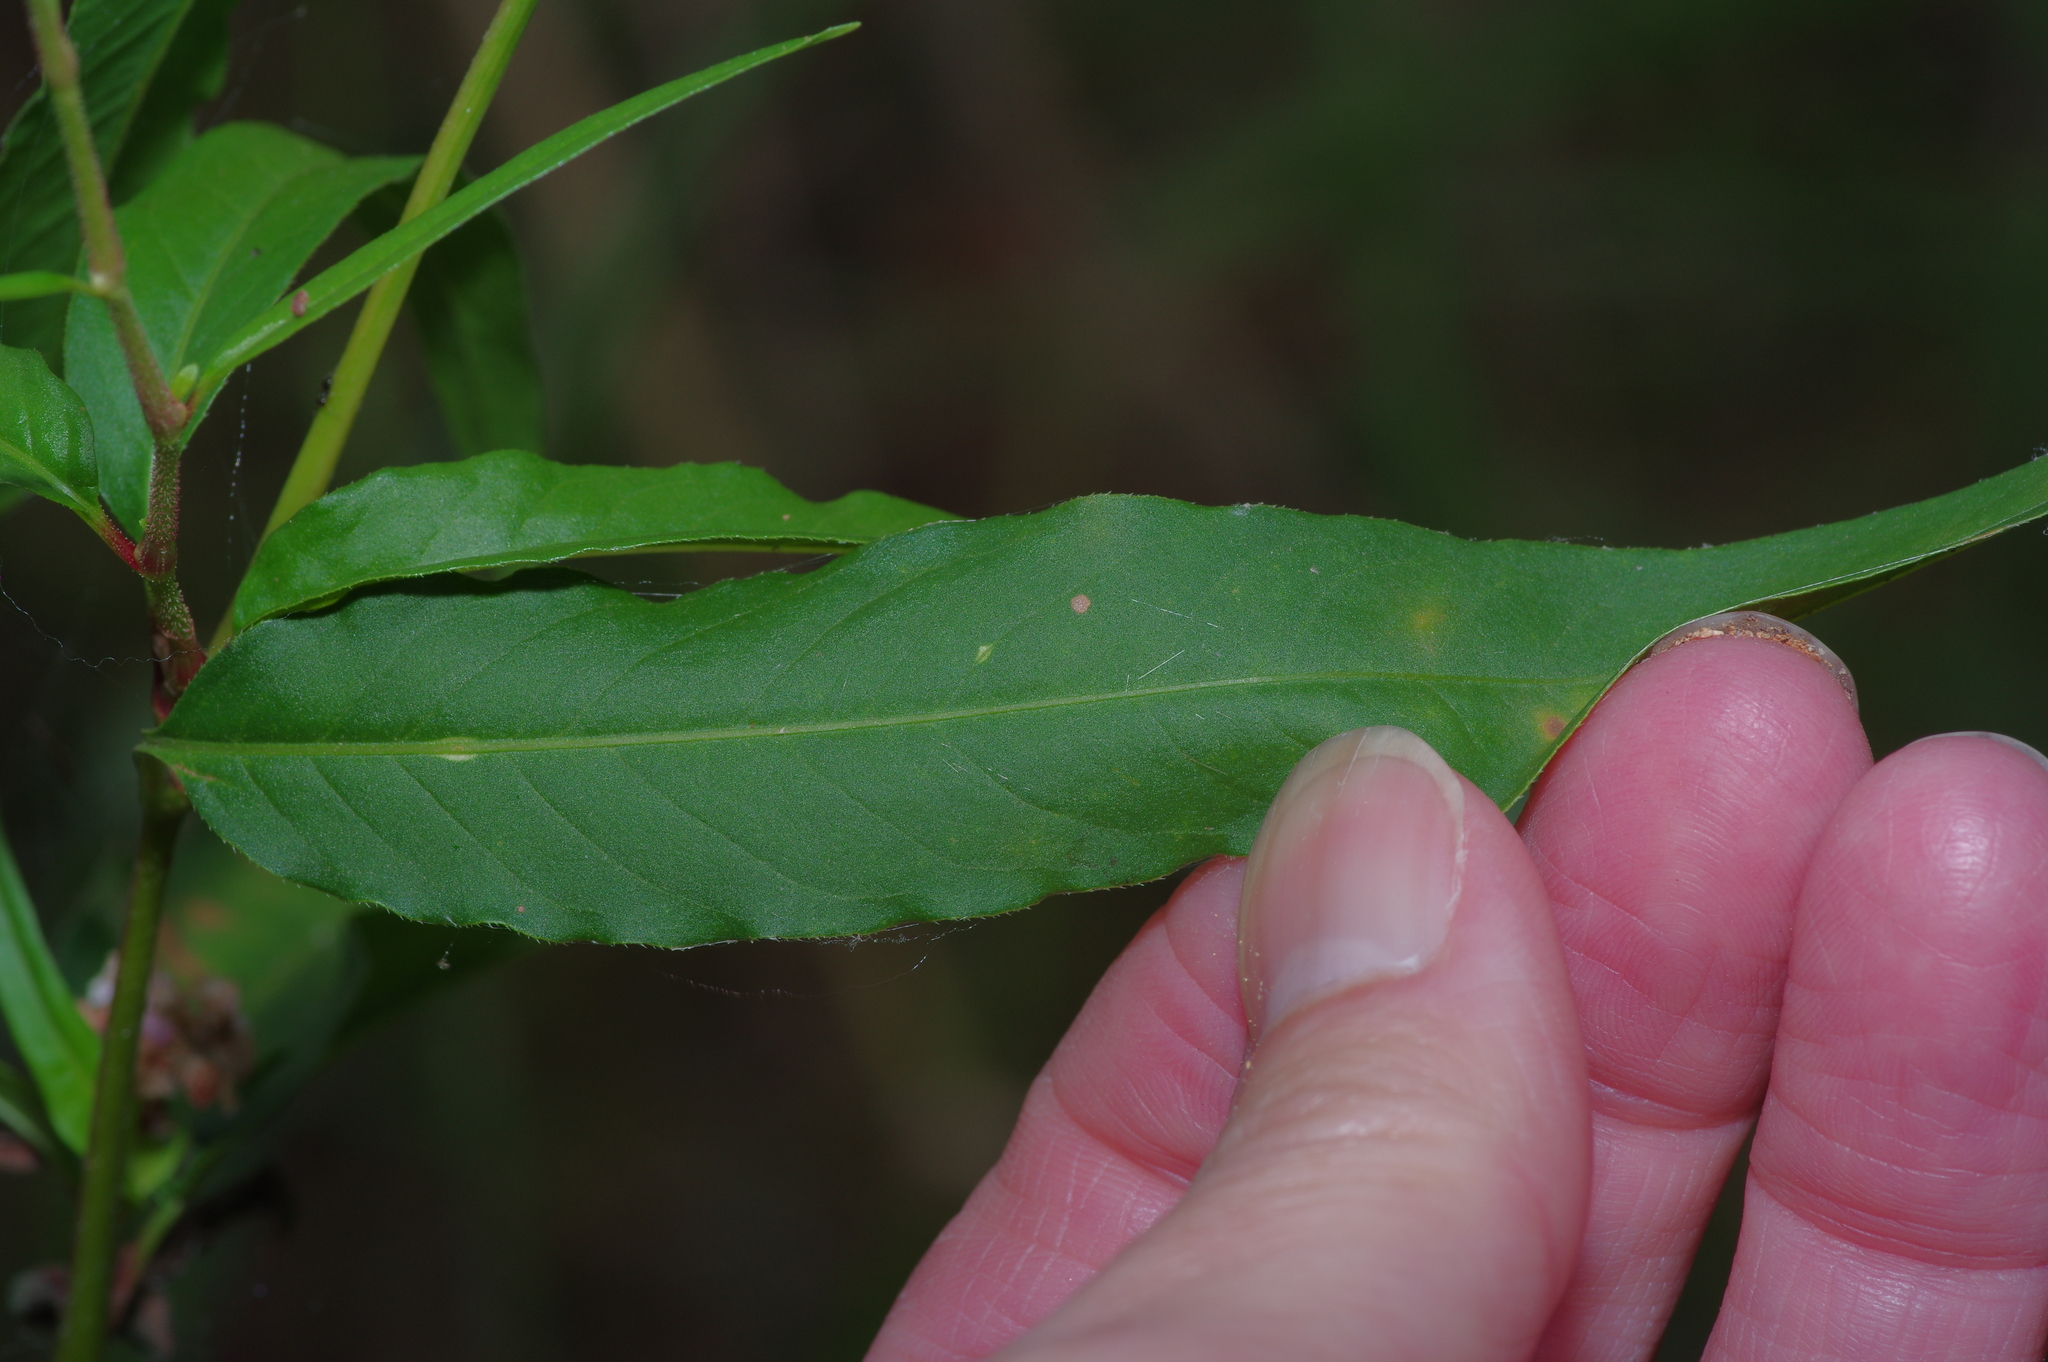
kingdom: Plantae
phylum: Tracheophyta
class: Magnoliopsida
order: Caryophyllales
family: Polygonaceae
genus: Persicaria
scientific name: Persicaria bicornis
